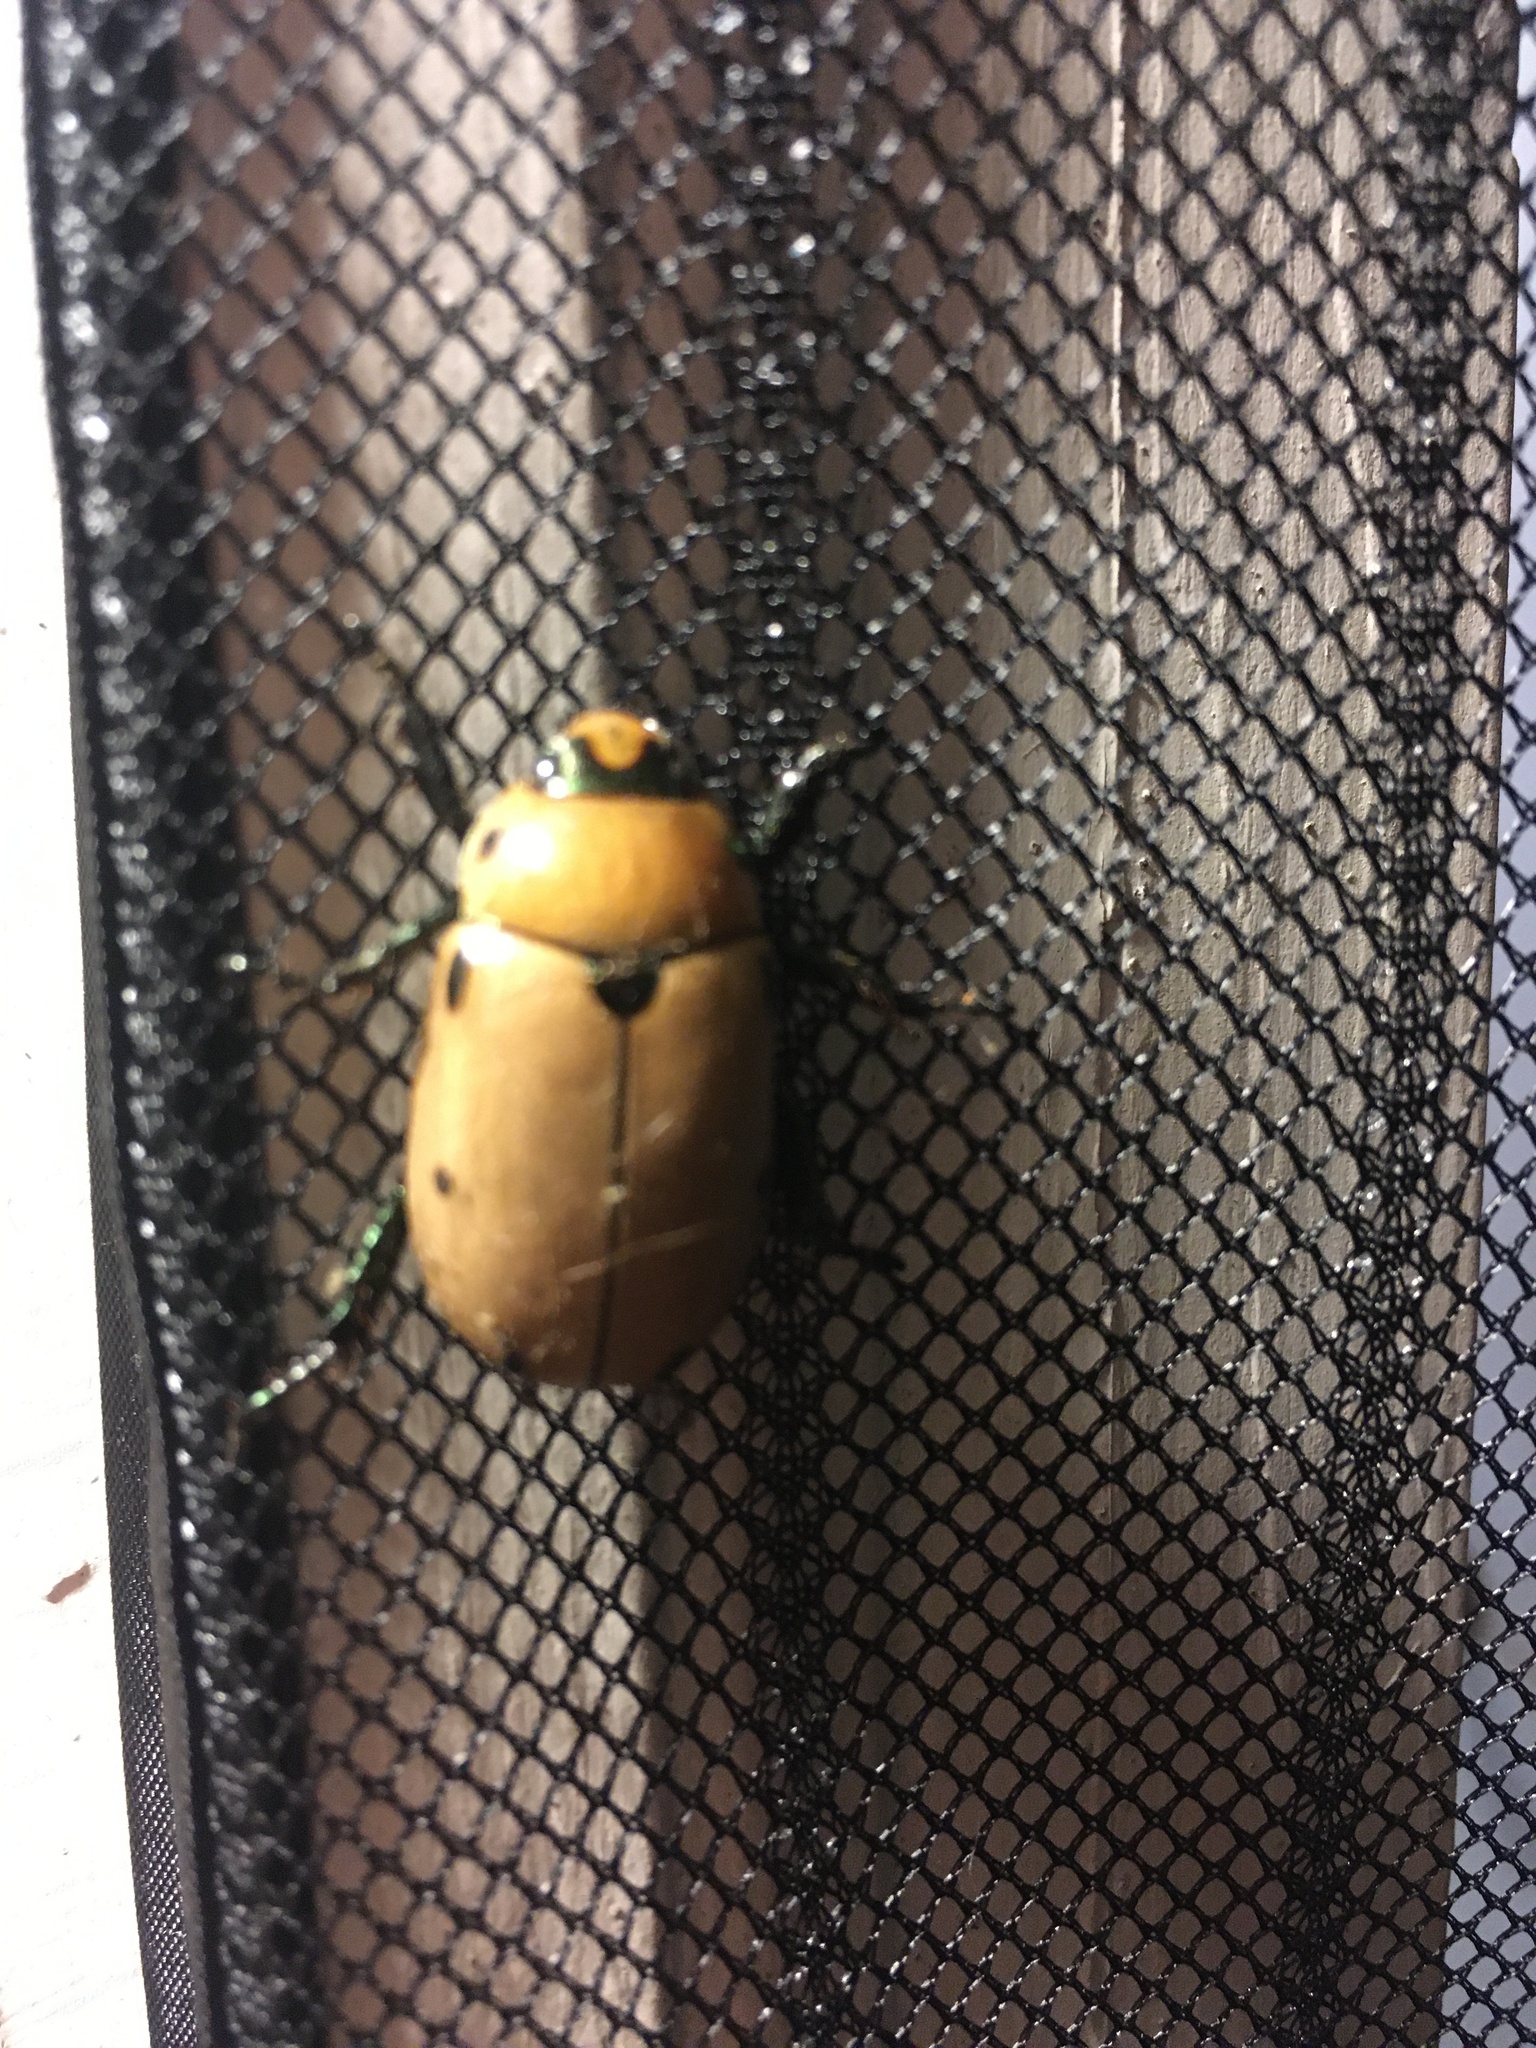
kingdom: Animalia
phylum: Arthropoda
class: Insecta
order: Coleoptera
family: Scarabaeidae
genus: Pelidnota
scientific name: Pelidnota punctata
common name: Grapevine beetle
